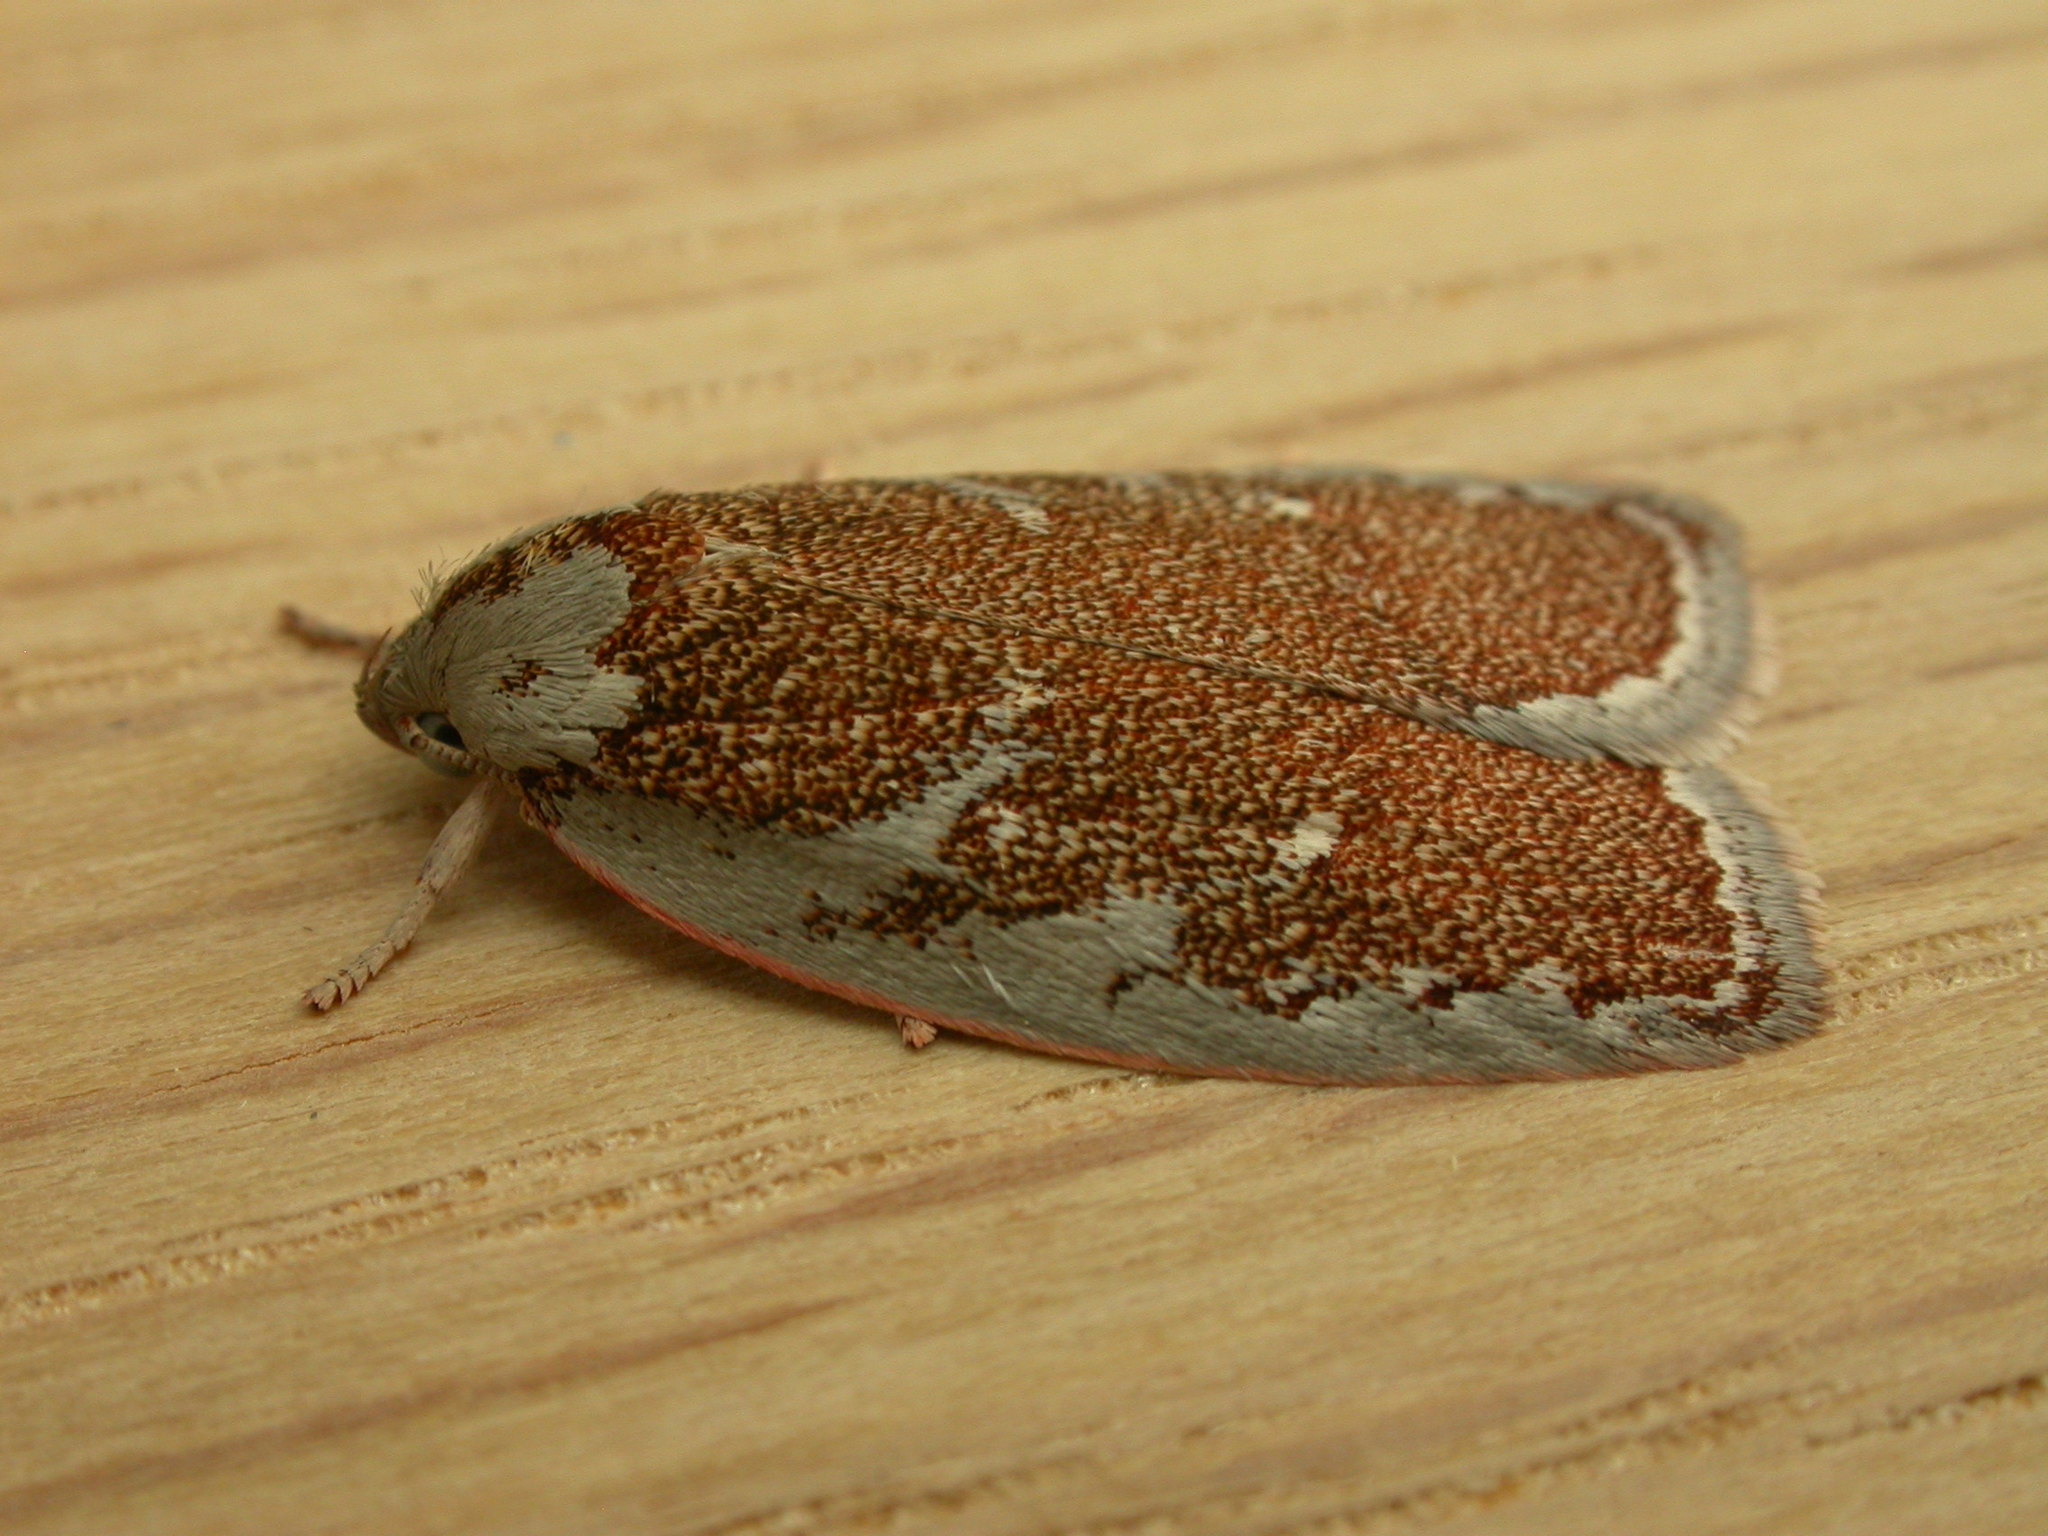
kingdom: Animalia
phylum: Arthropoda
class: Insecta
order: Lepidoptera
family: Oecophoridae
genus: Euchaetis
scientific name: Euchaetis rhizobola
